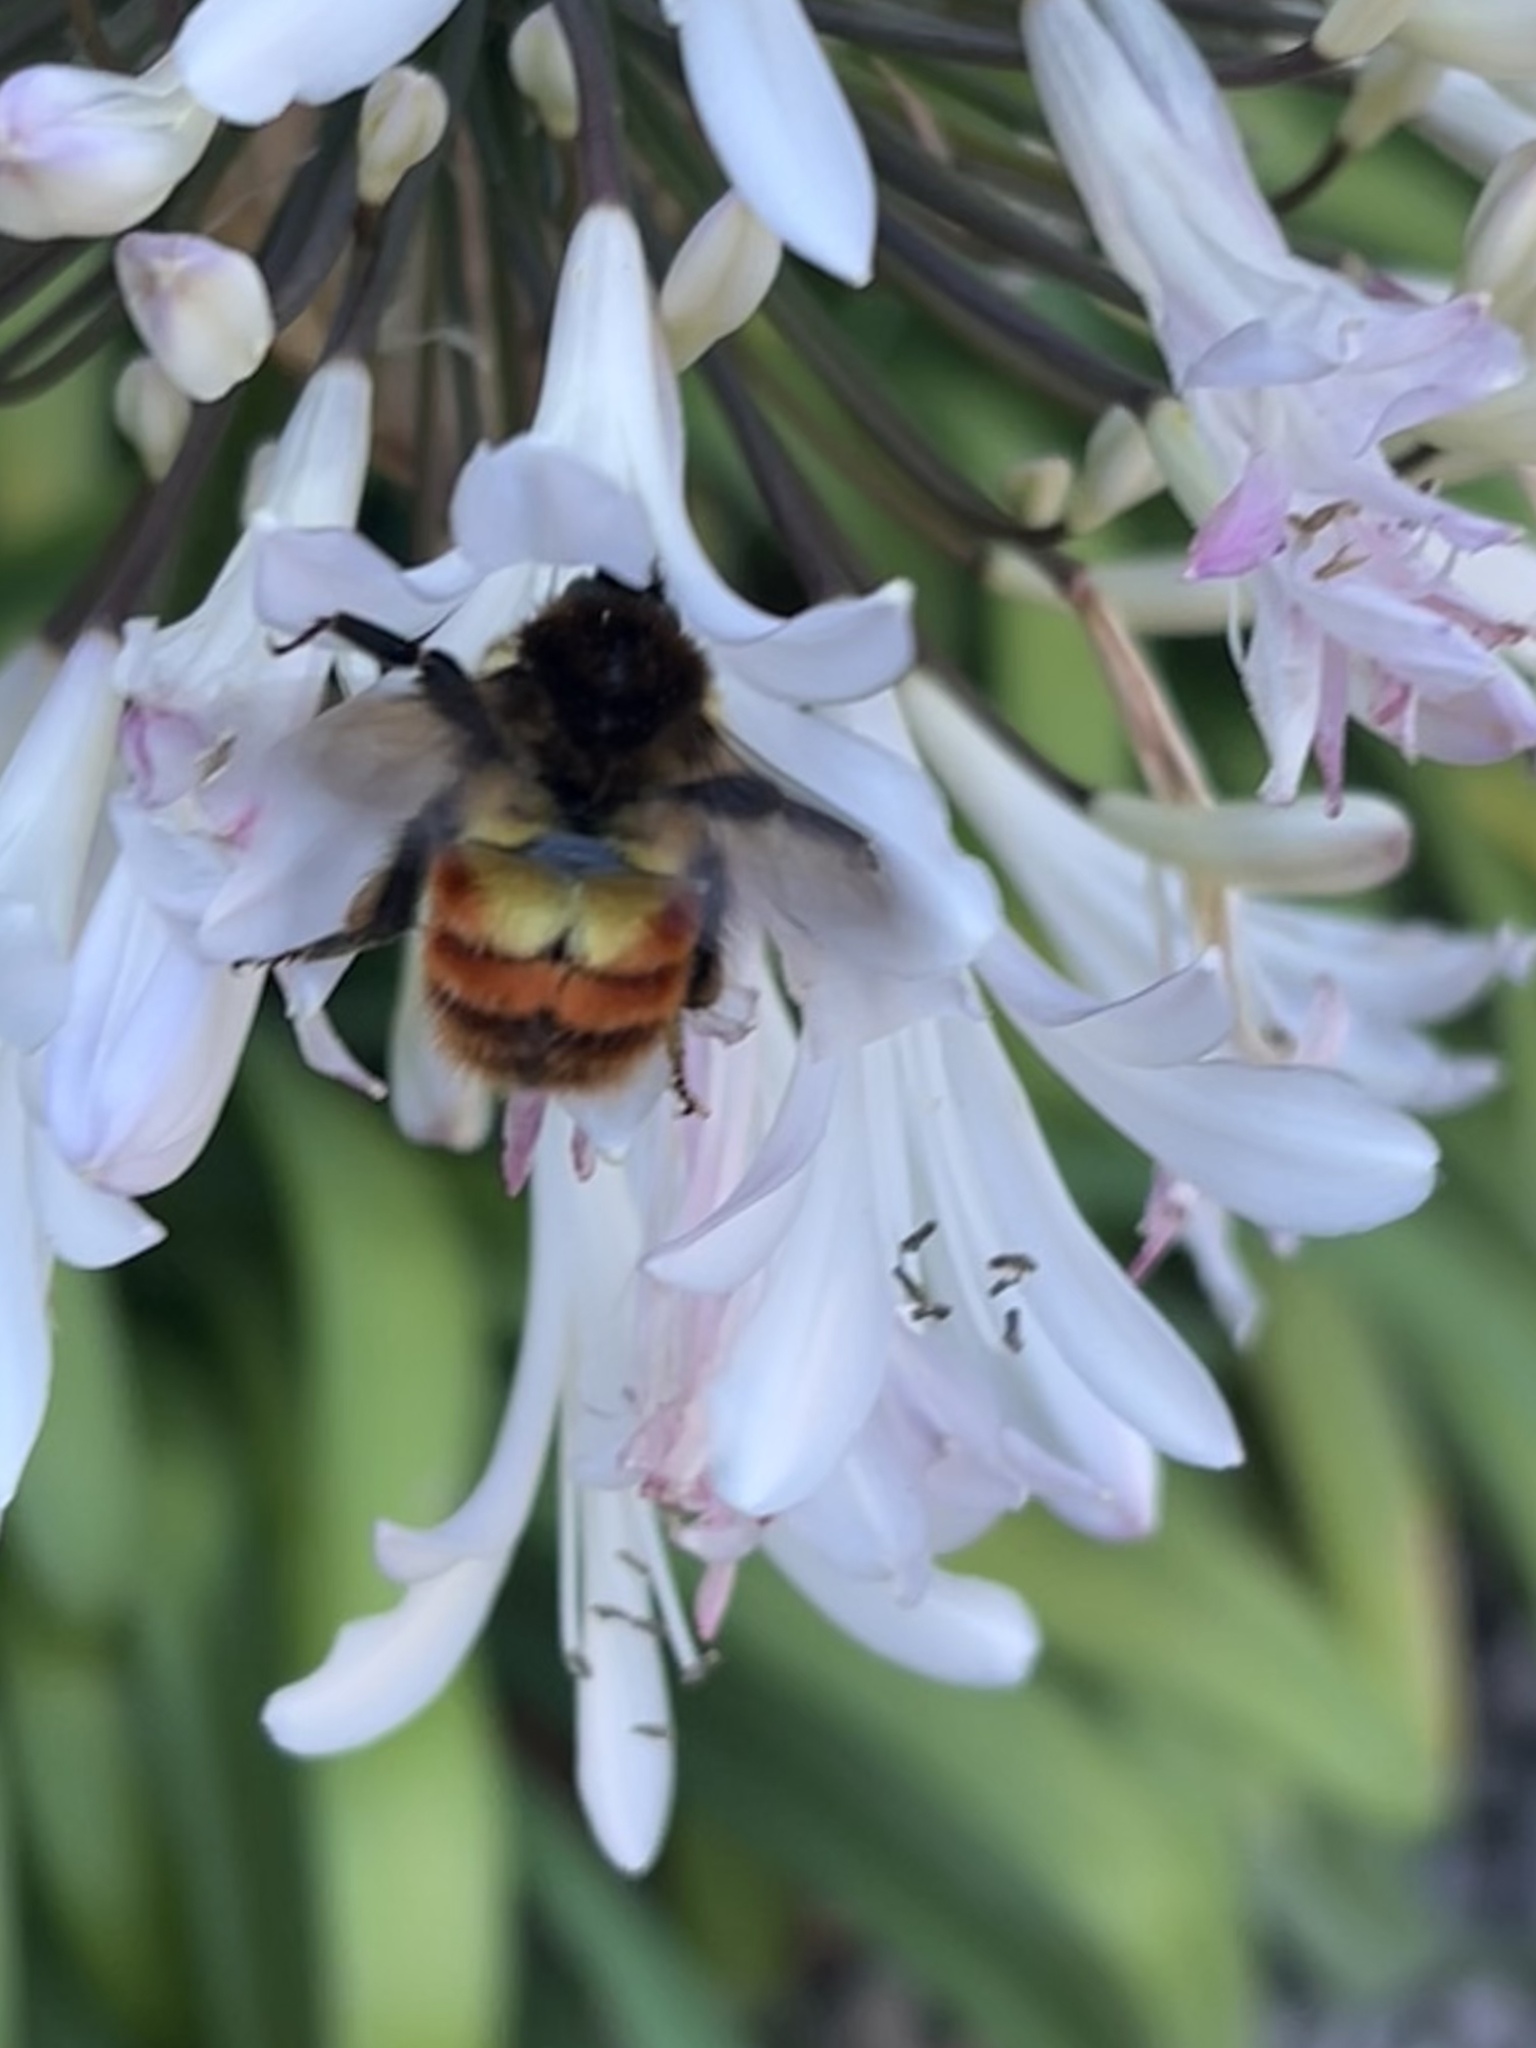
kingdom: Animalia
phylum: Arthropoda
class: Insecta
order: Hymenoptera
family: Apidae
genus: Bombus
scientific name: Bombus ephippiatus
